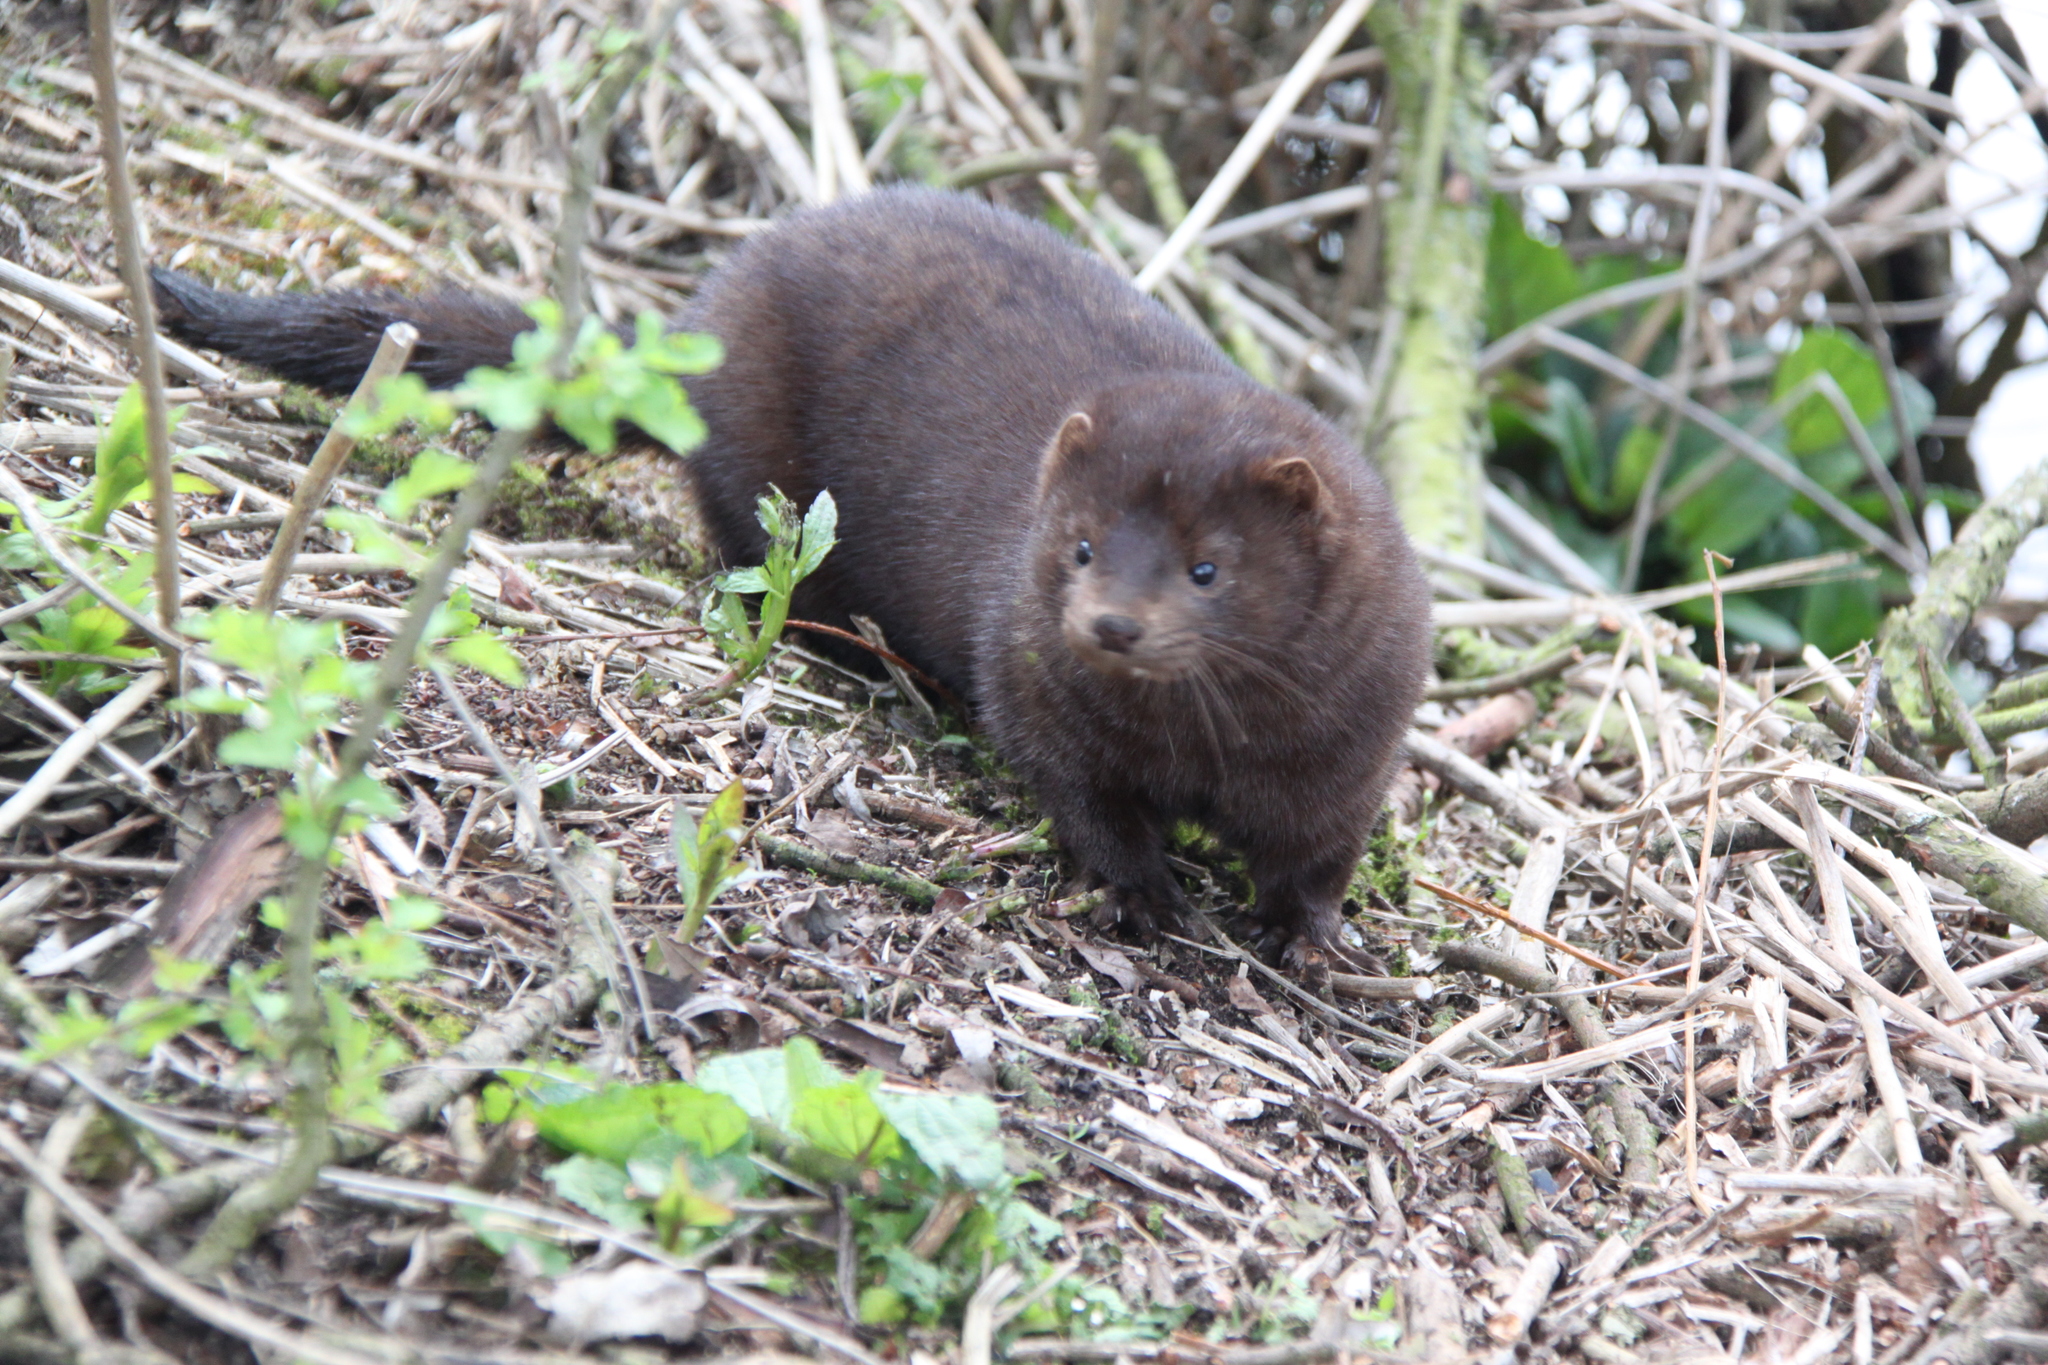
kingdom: Animalia
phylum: Chordata
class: Mammalia
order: Carnivora
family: Mustelidae
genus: Mustela
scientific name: Mustela
